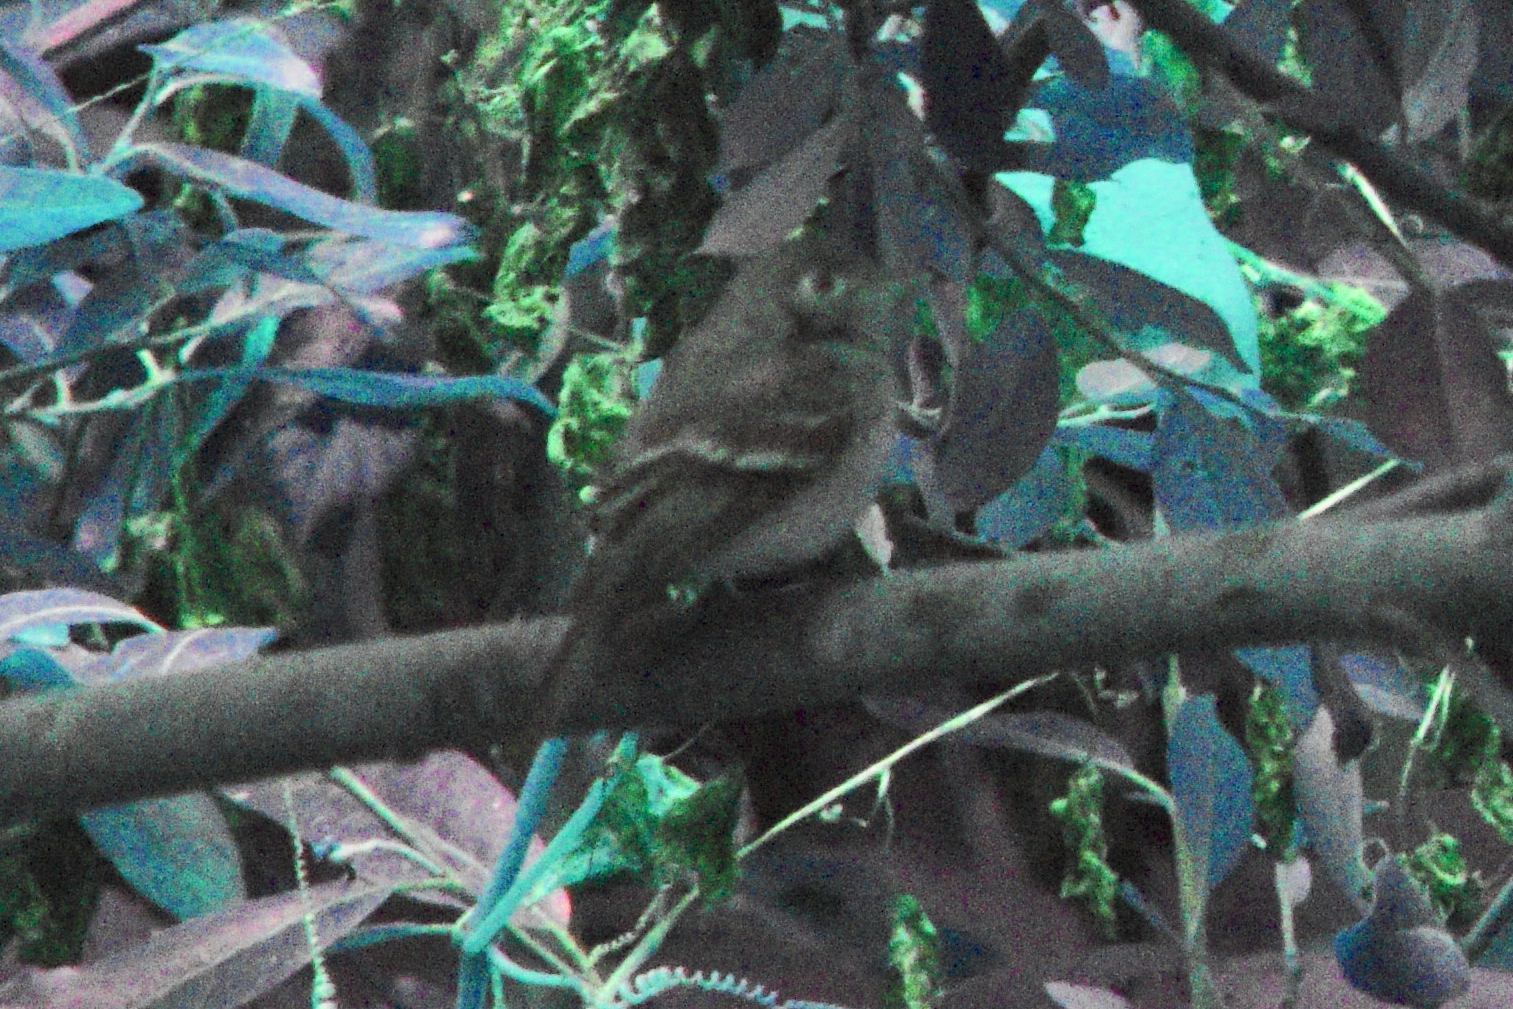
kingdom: Animalia
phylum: Chordata
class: Aves
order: Passeriformes
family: Tyrannidae
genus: Empidonax
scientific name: Empidonax difficilis
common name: Pacific-slope flycatcher
